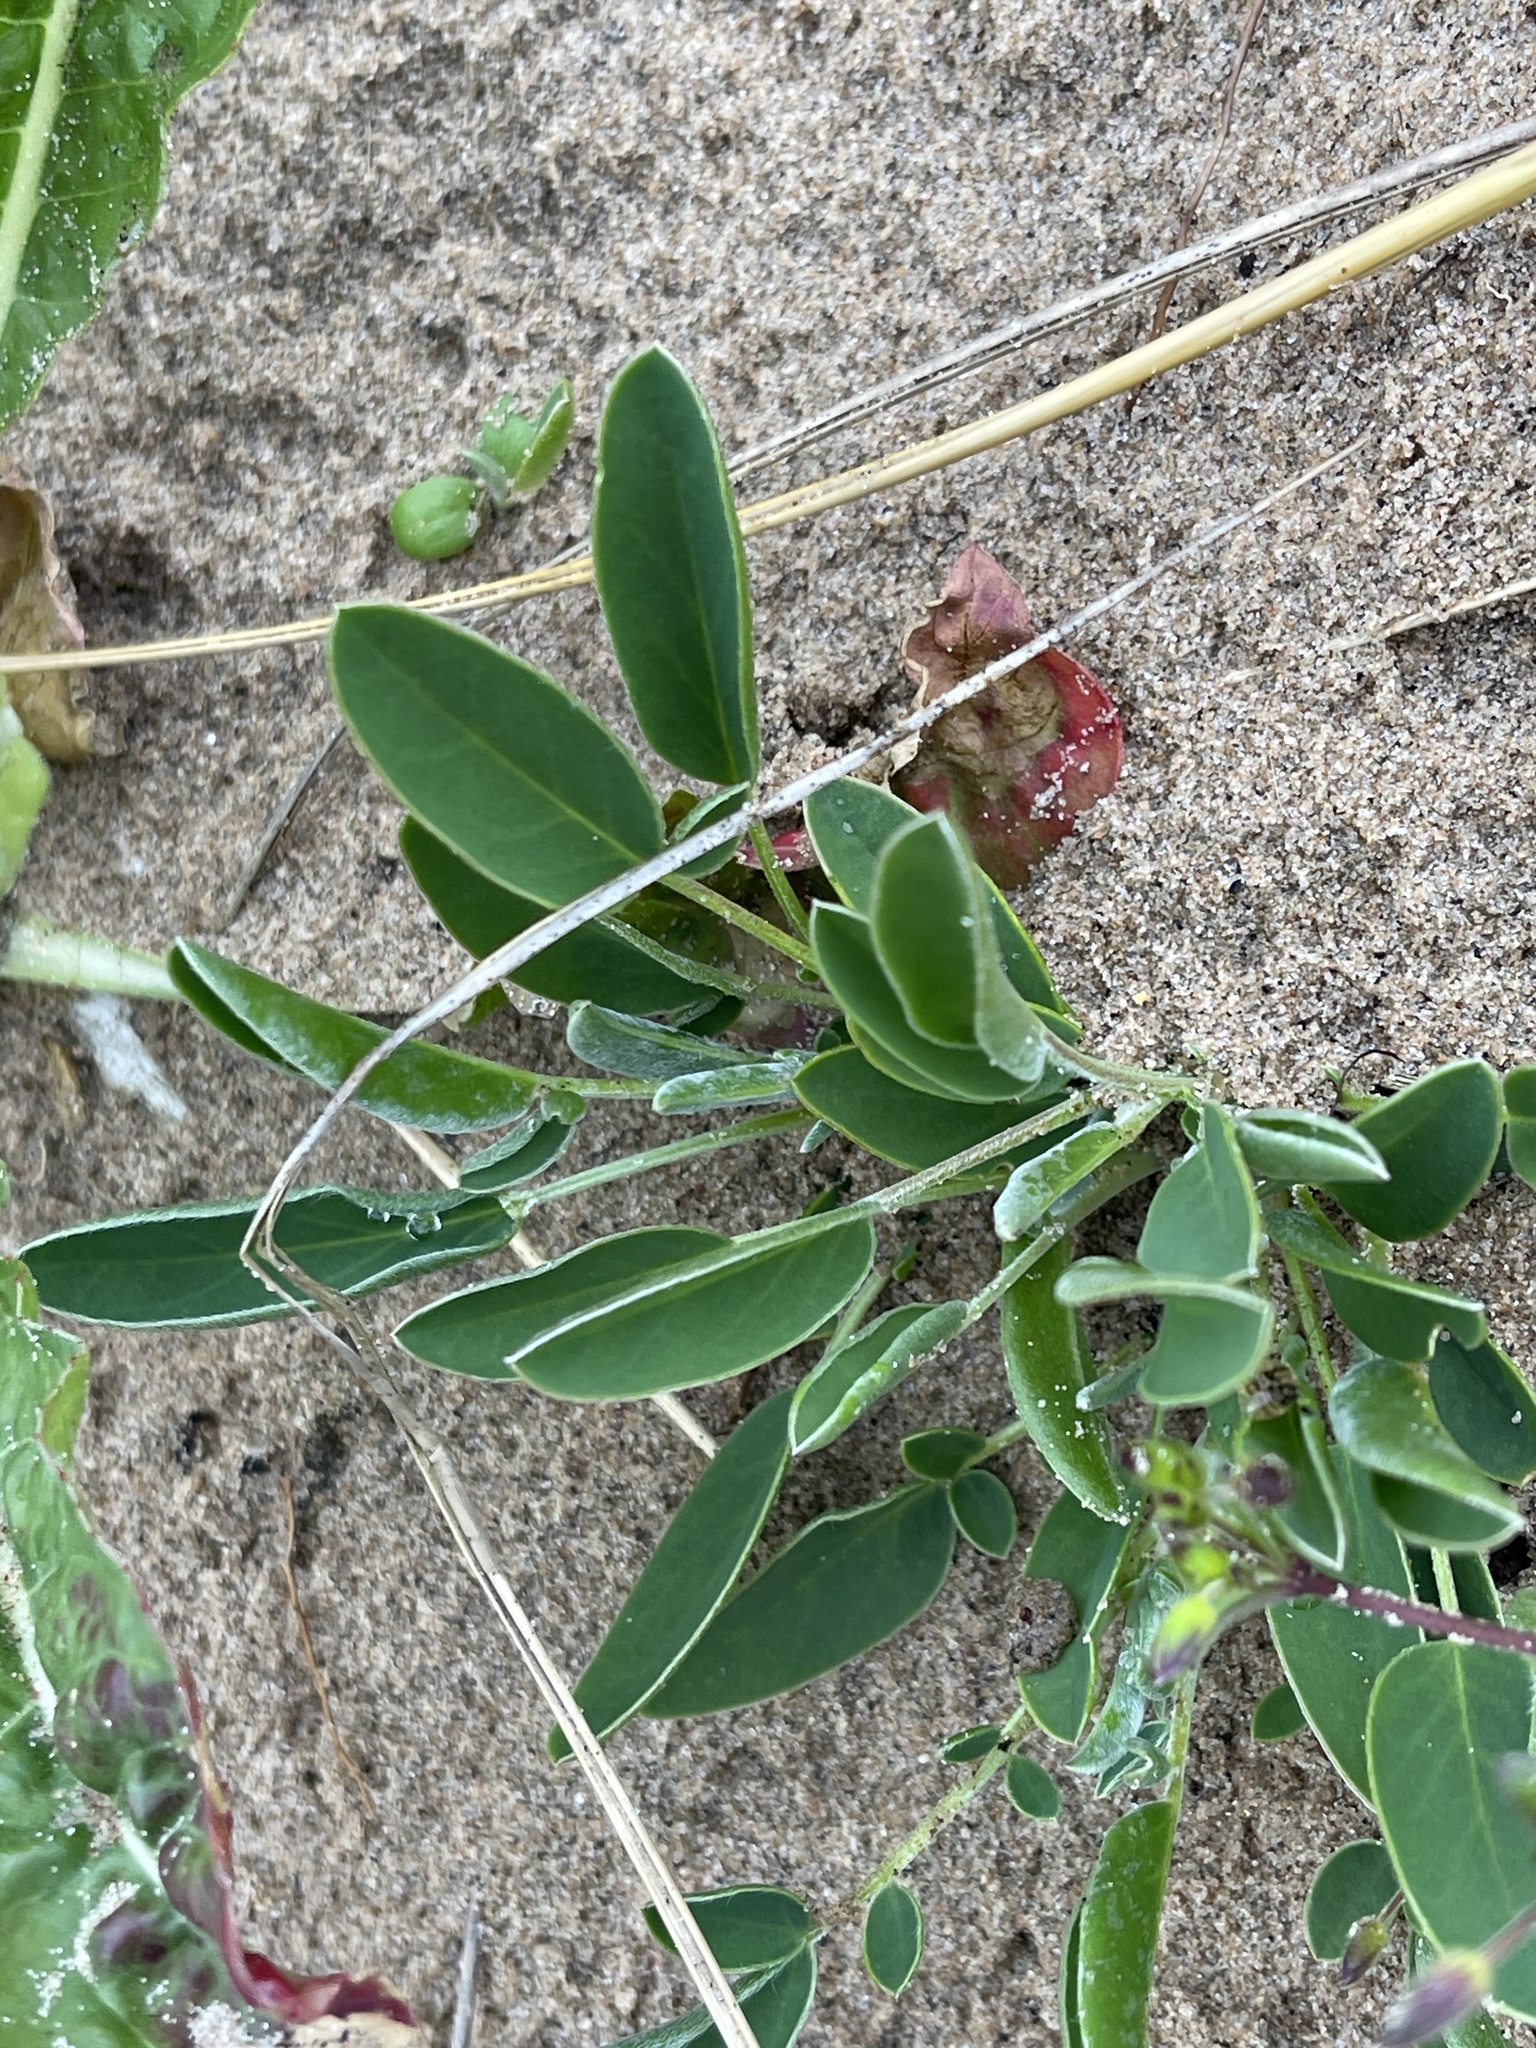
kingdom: Plantae
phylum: Tracheophyta
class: Magnoliopsida
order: Fabales
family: Fabaceae
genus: Anthyllis
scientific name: Anthyllis vulneraria
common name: Kidney vetch
